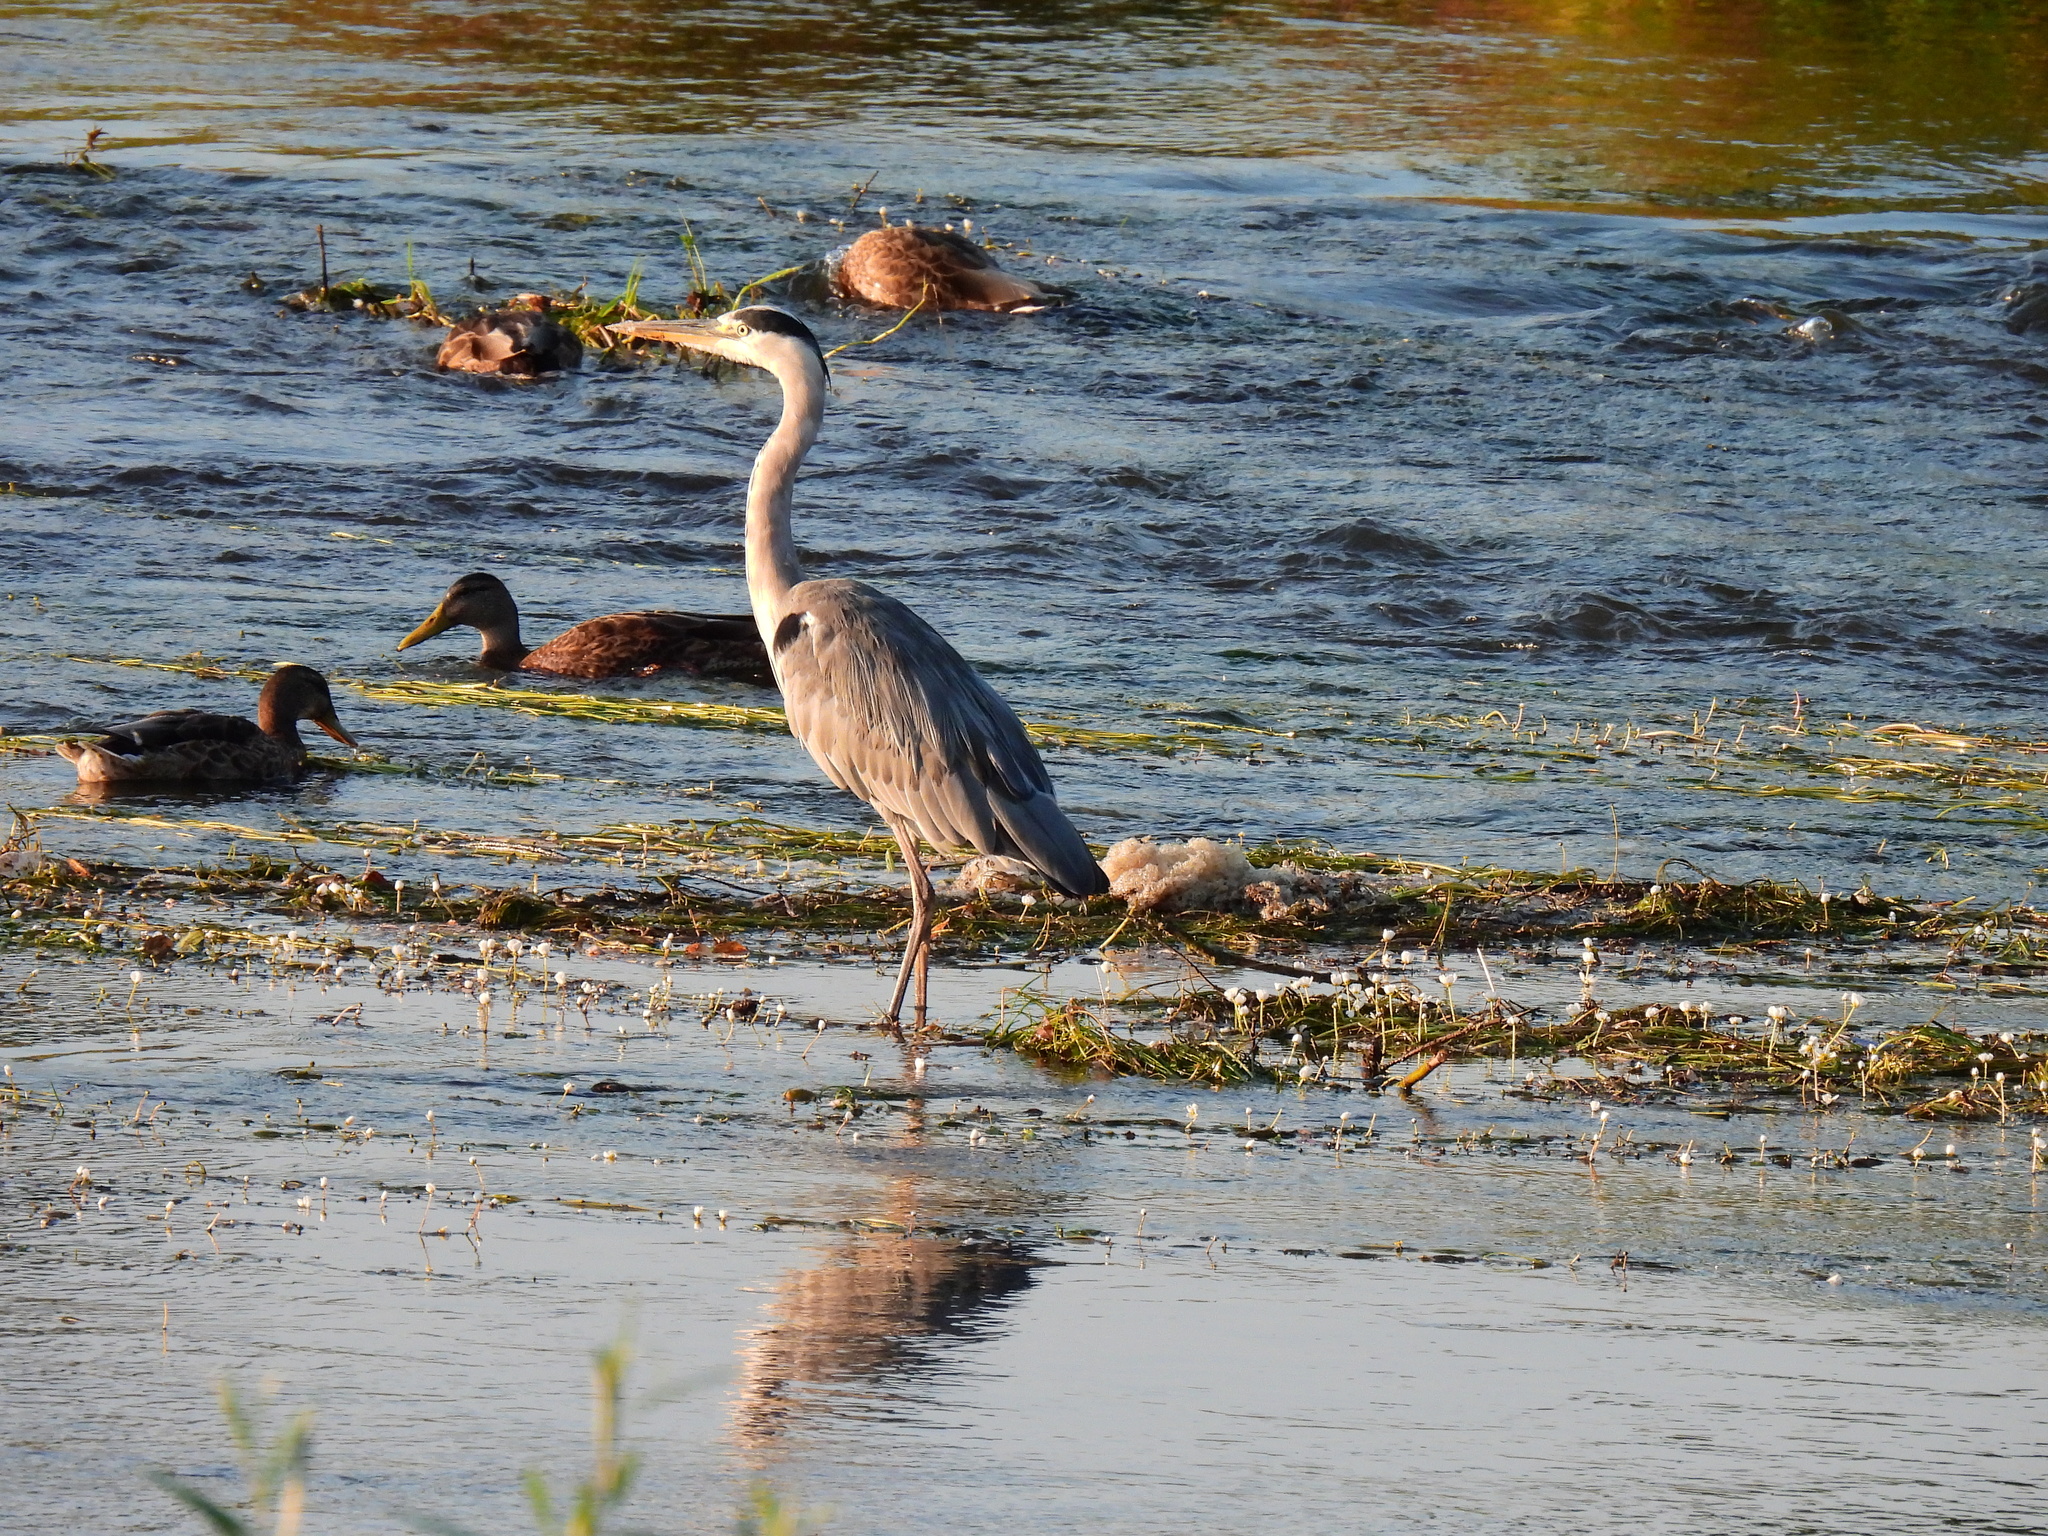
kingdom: Animalia
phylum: Chordata
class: Aves
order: Pelecaniformes
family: Ardeidae
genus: Ardea
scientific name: Ardea cinerea
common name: Grey heron
